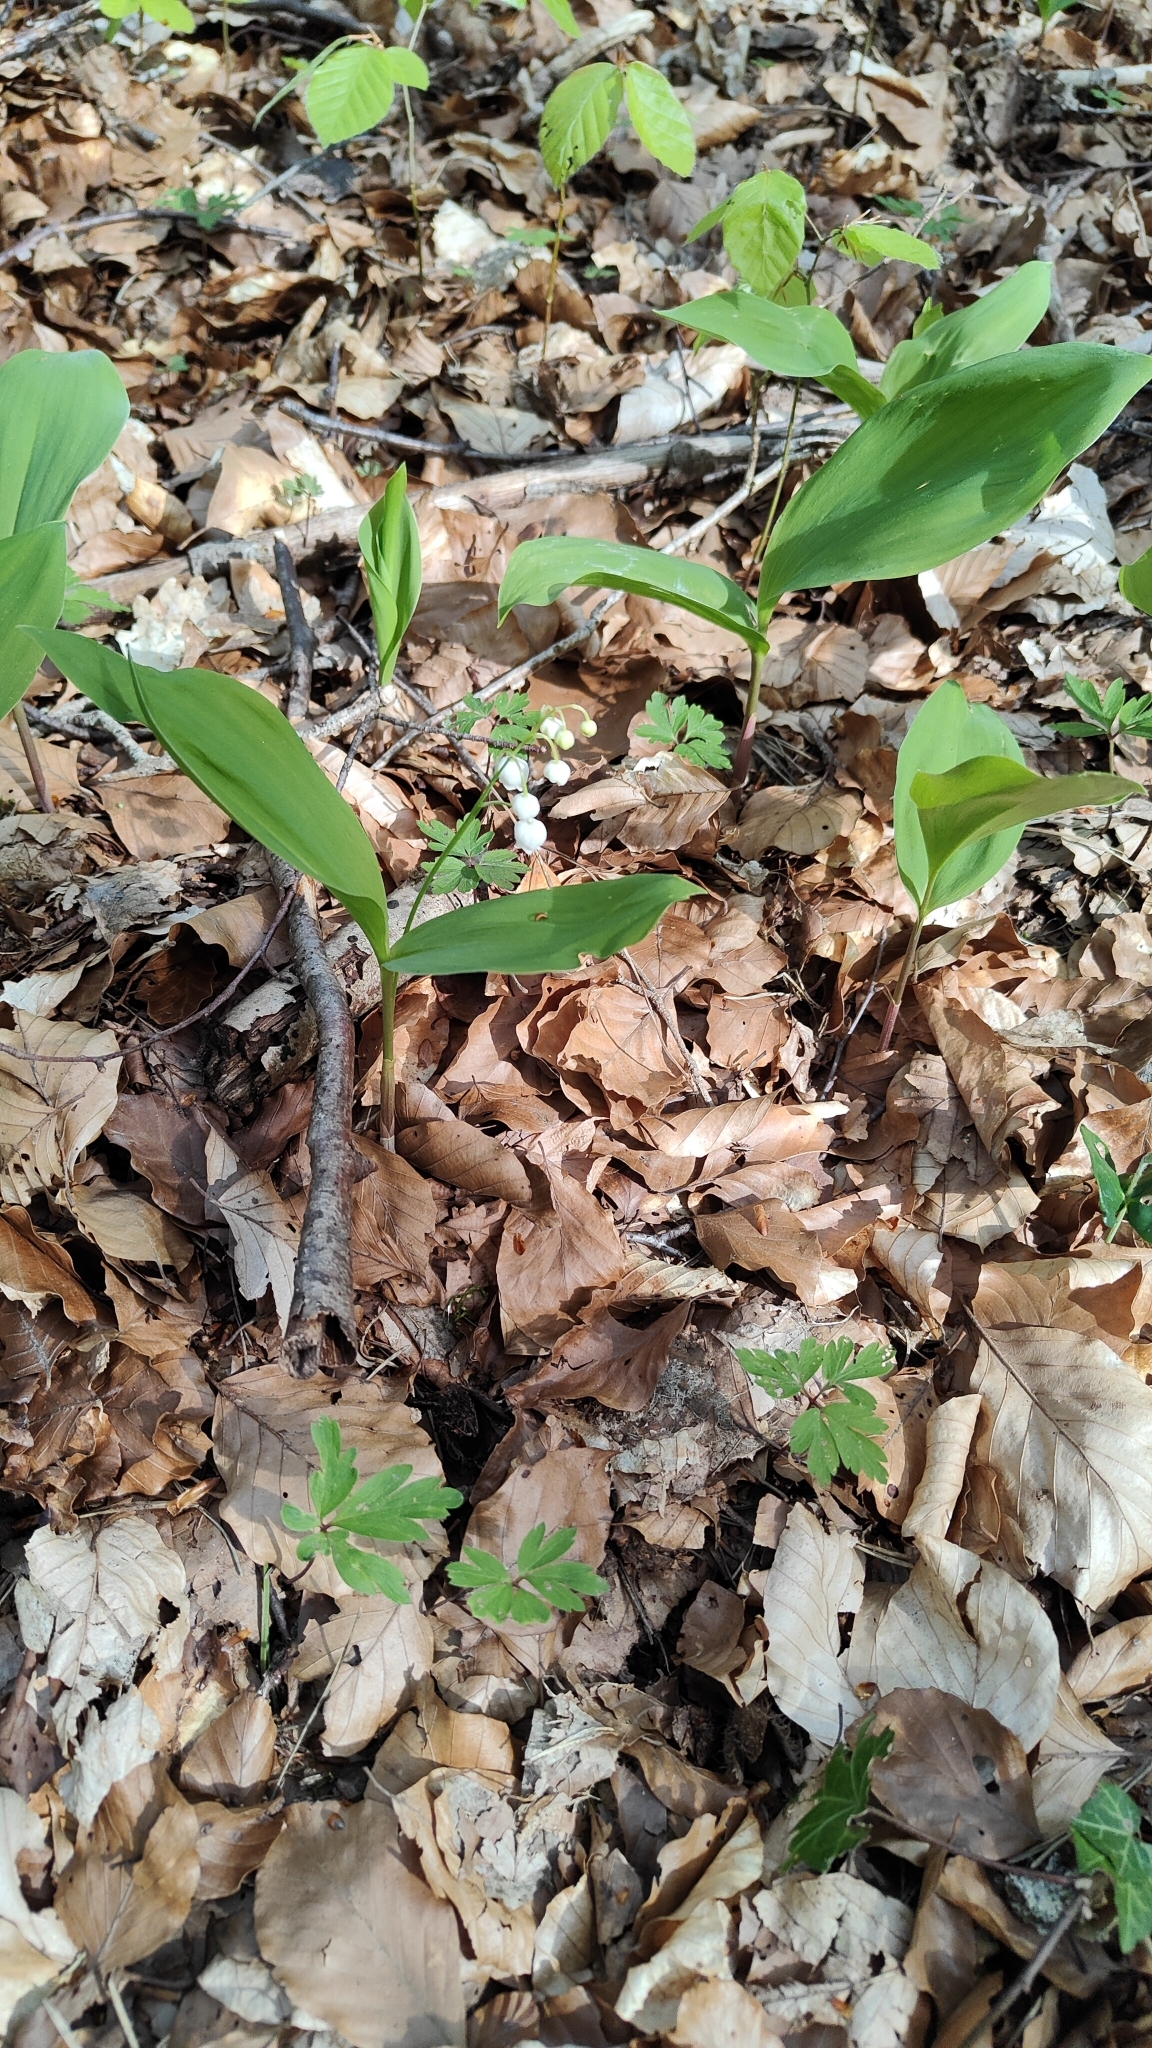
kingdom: Plantae
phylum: Tracheophyta
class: Liliopsida
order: Asparagales
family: Asparagaceae
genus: Convallaria
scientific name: Convallaria majalis
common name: Lily-of-the-valley
